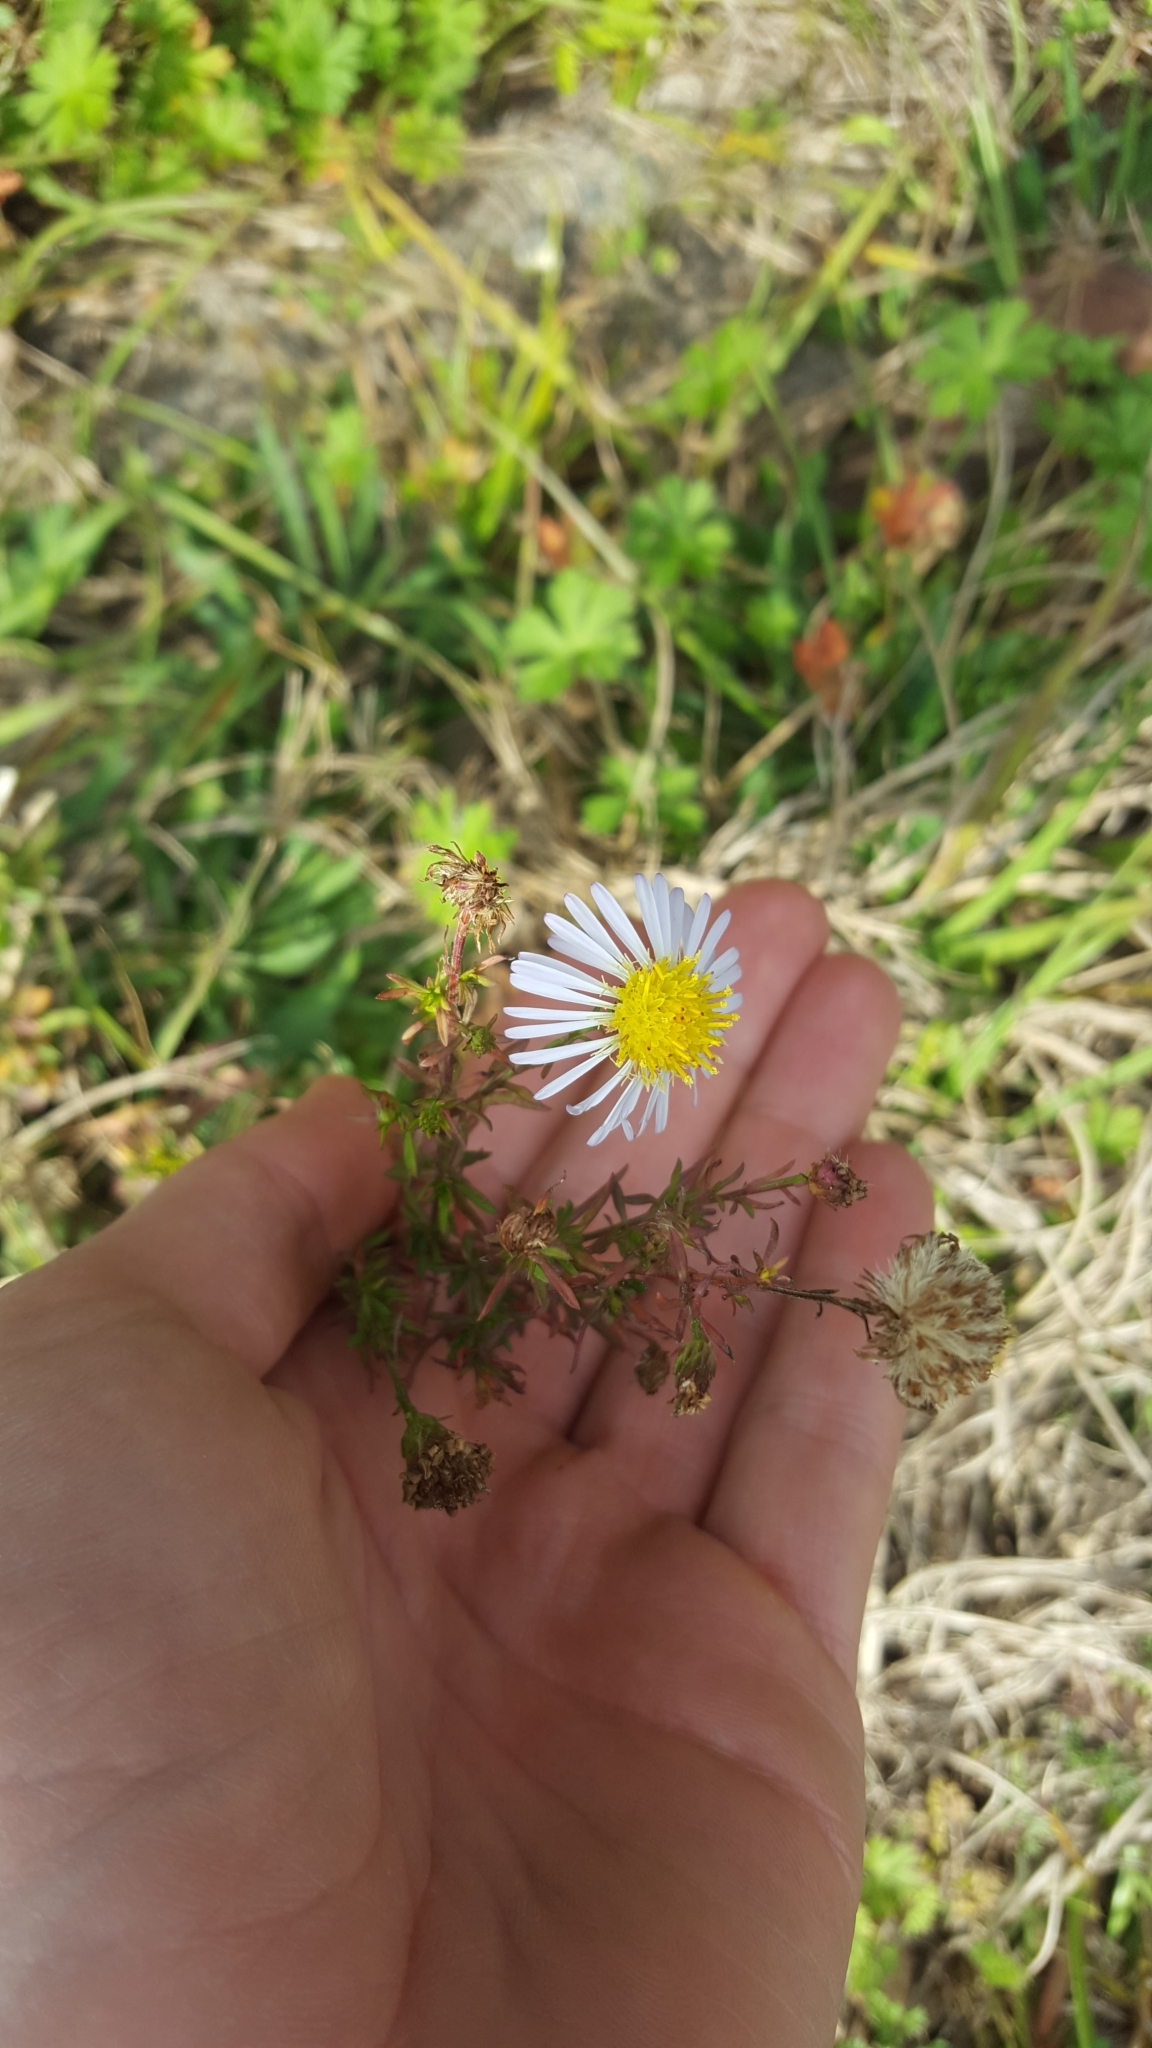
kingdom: Plantae
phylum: Tracheophyta
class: Magnoliopsida
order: Asterales
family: Asteraceae
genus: Symphyotrichum
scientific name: Symphyotrichum dumosum
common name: Bushy aster
